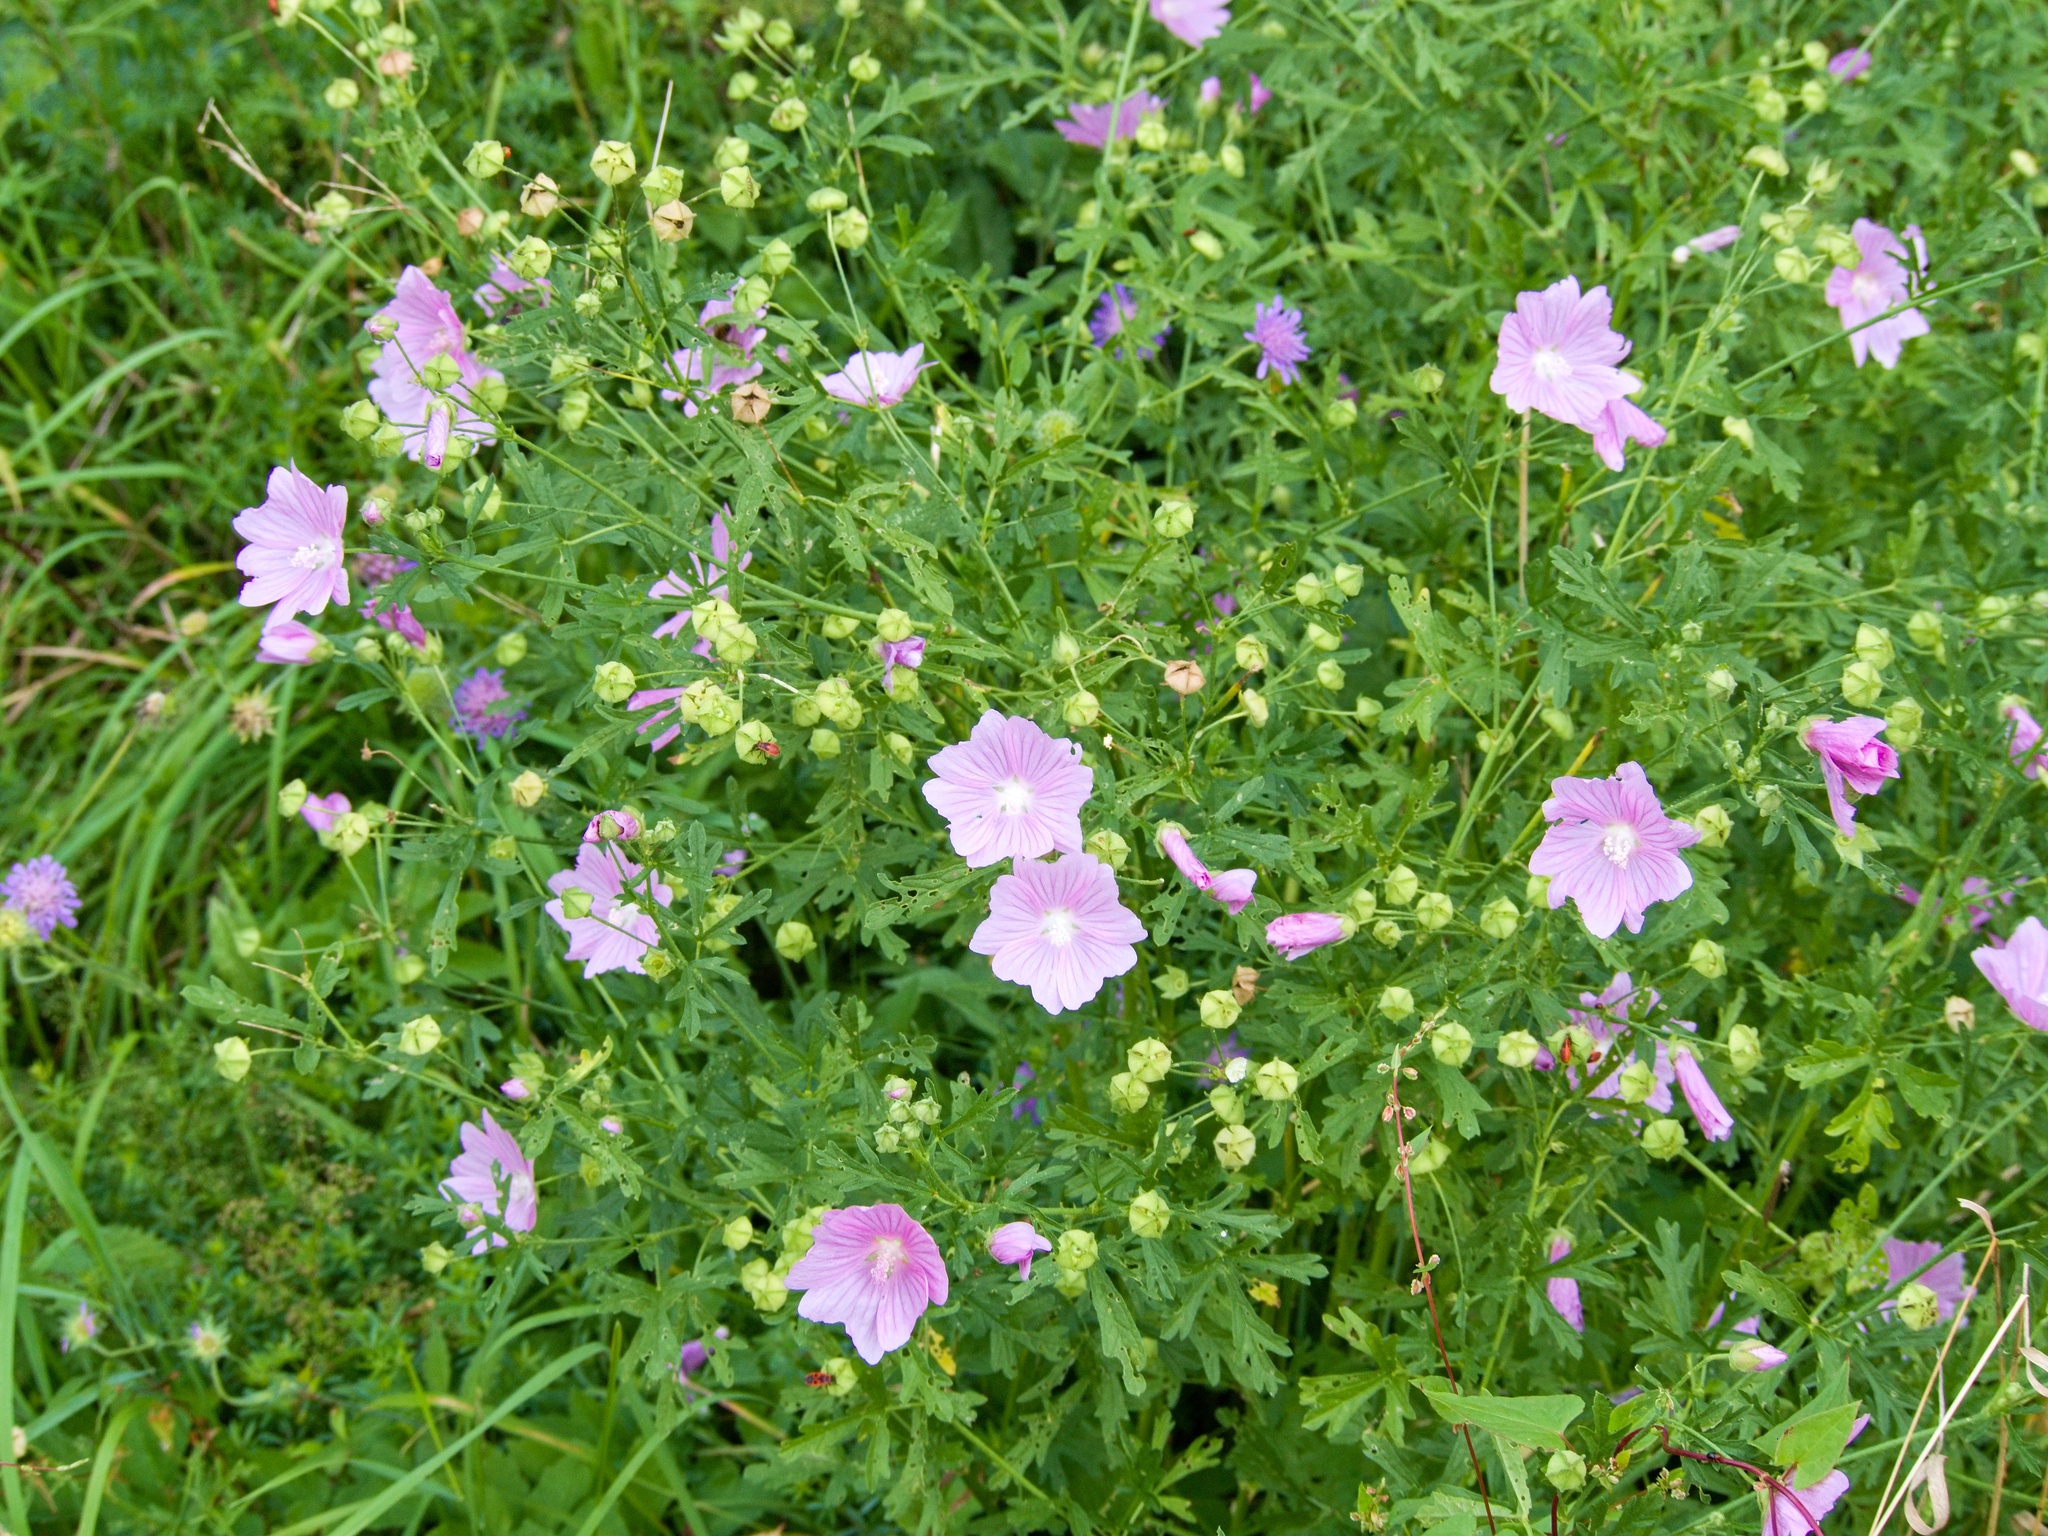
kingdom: Plantae
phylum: Tracheophyta
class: Magnoliopsida
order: Malvales
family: Malvaceae
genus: Malva
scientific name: Malva alcea
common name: Greater musk-mallow
